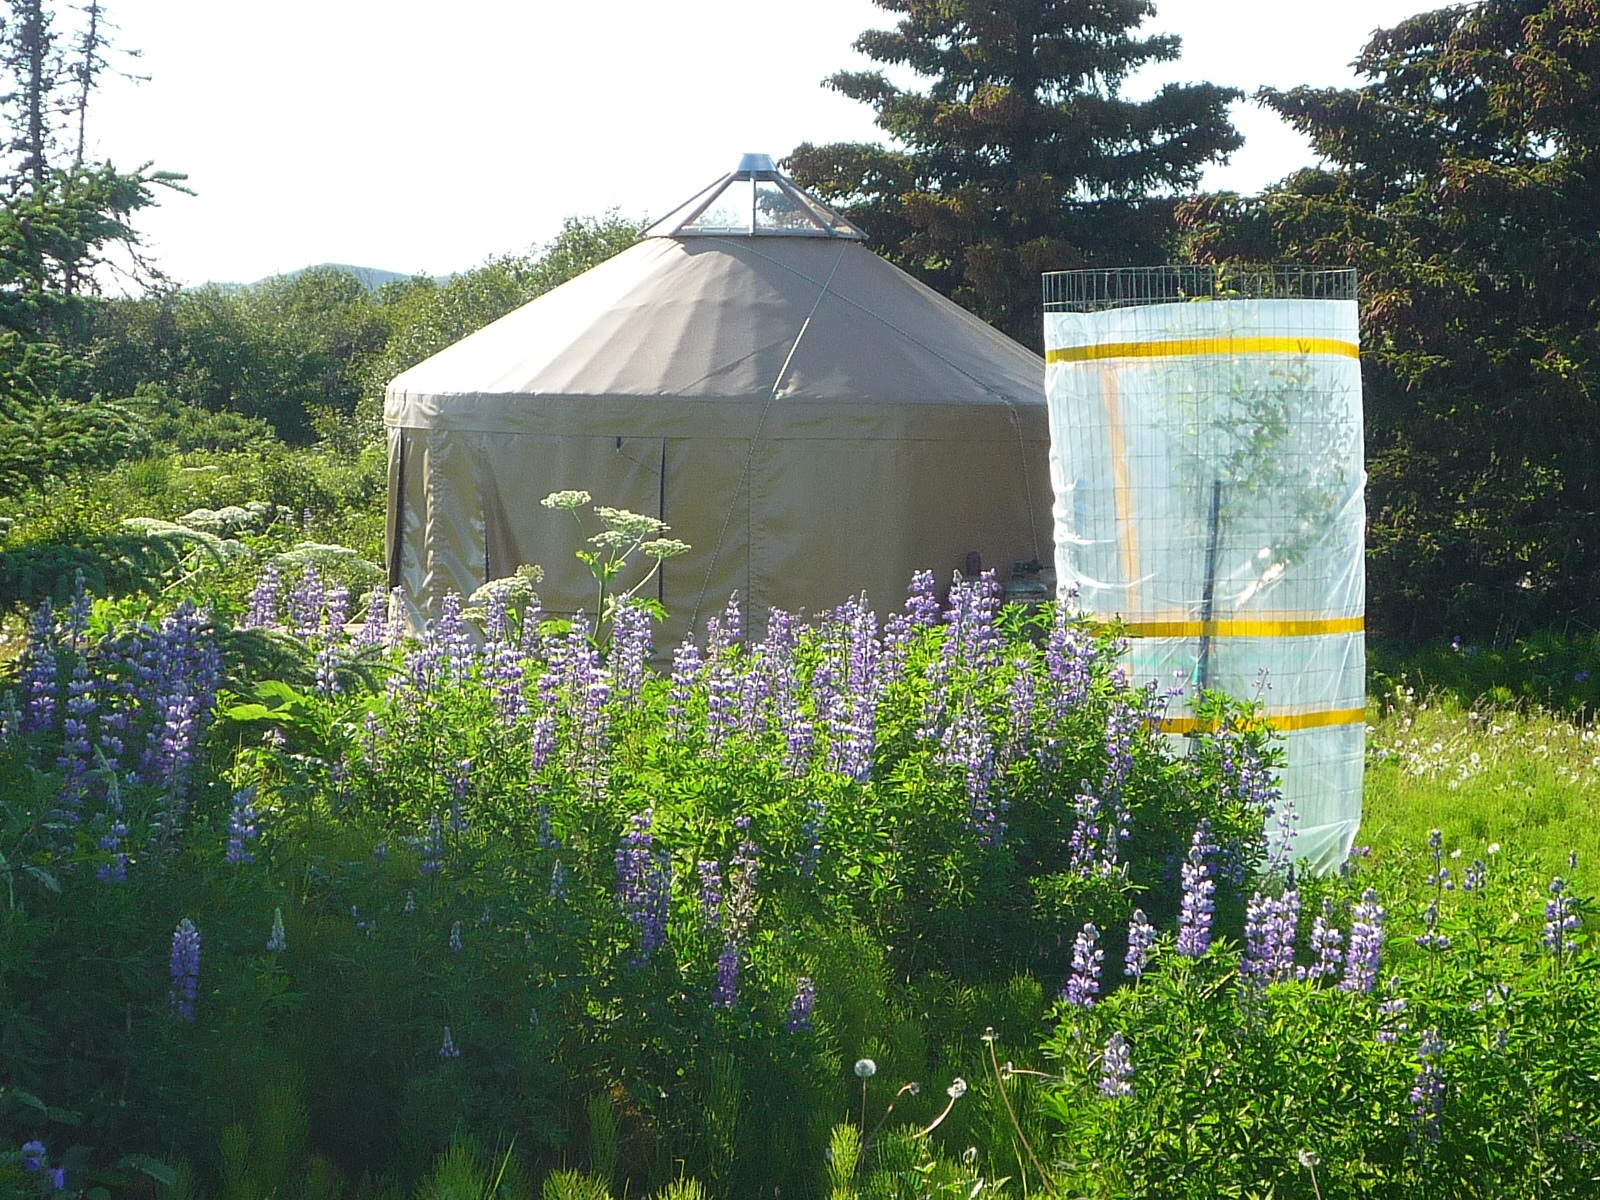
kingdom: Plantae
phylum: Tracheophyta
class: Magnoliopsida
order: Fabales
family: Fabaceae
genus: Lupinus
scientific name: Lupinus nootkatensis
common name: Nootka lupine
